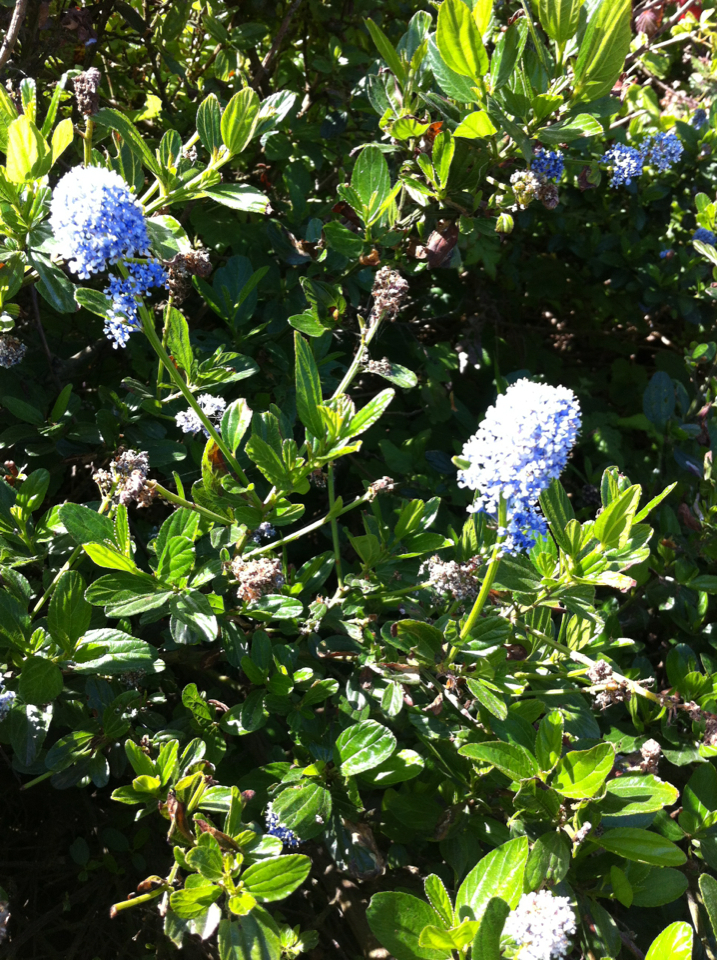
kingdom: Plantae
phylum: Tracheophyta
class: Magnoliopsida
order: Rosales
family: Rhamnaceae
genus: Ceanothus
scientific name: Ceanothus thyrsiflorus
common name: California-lilac
